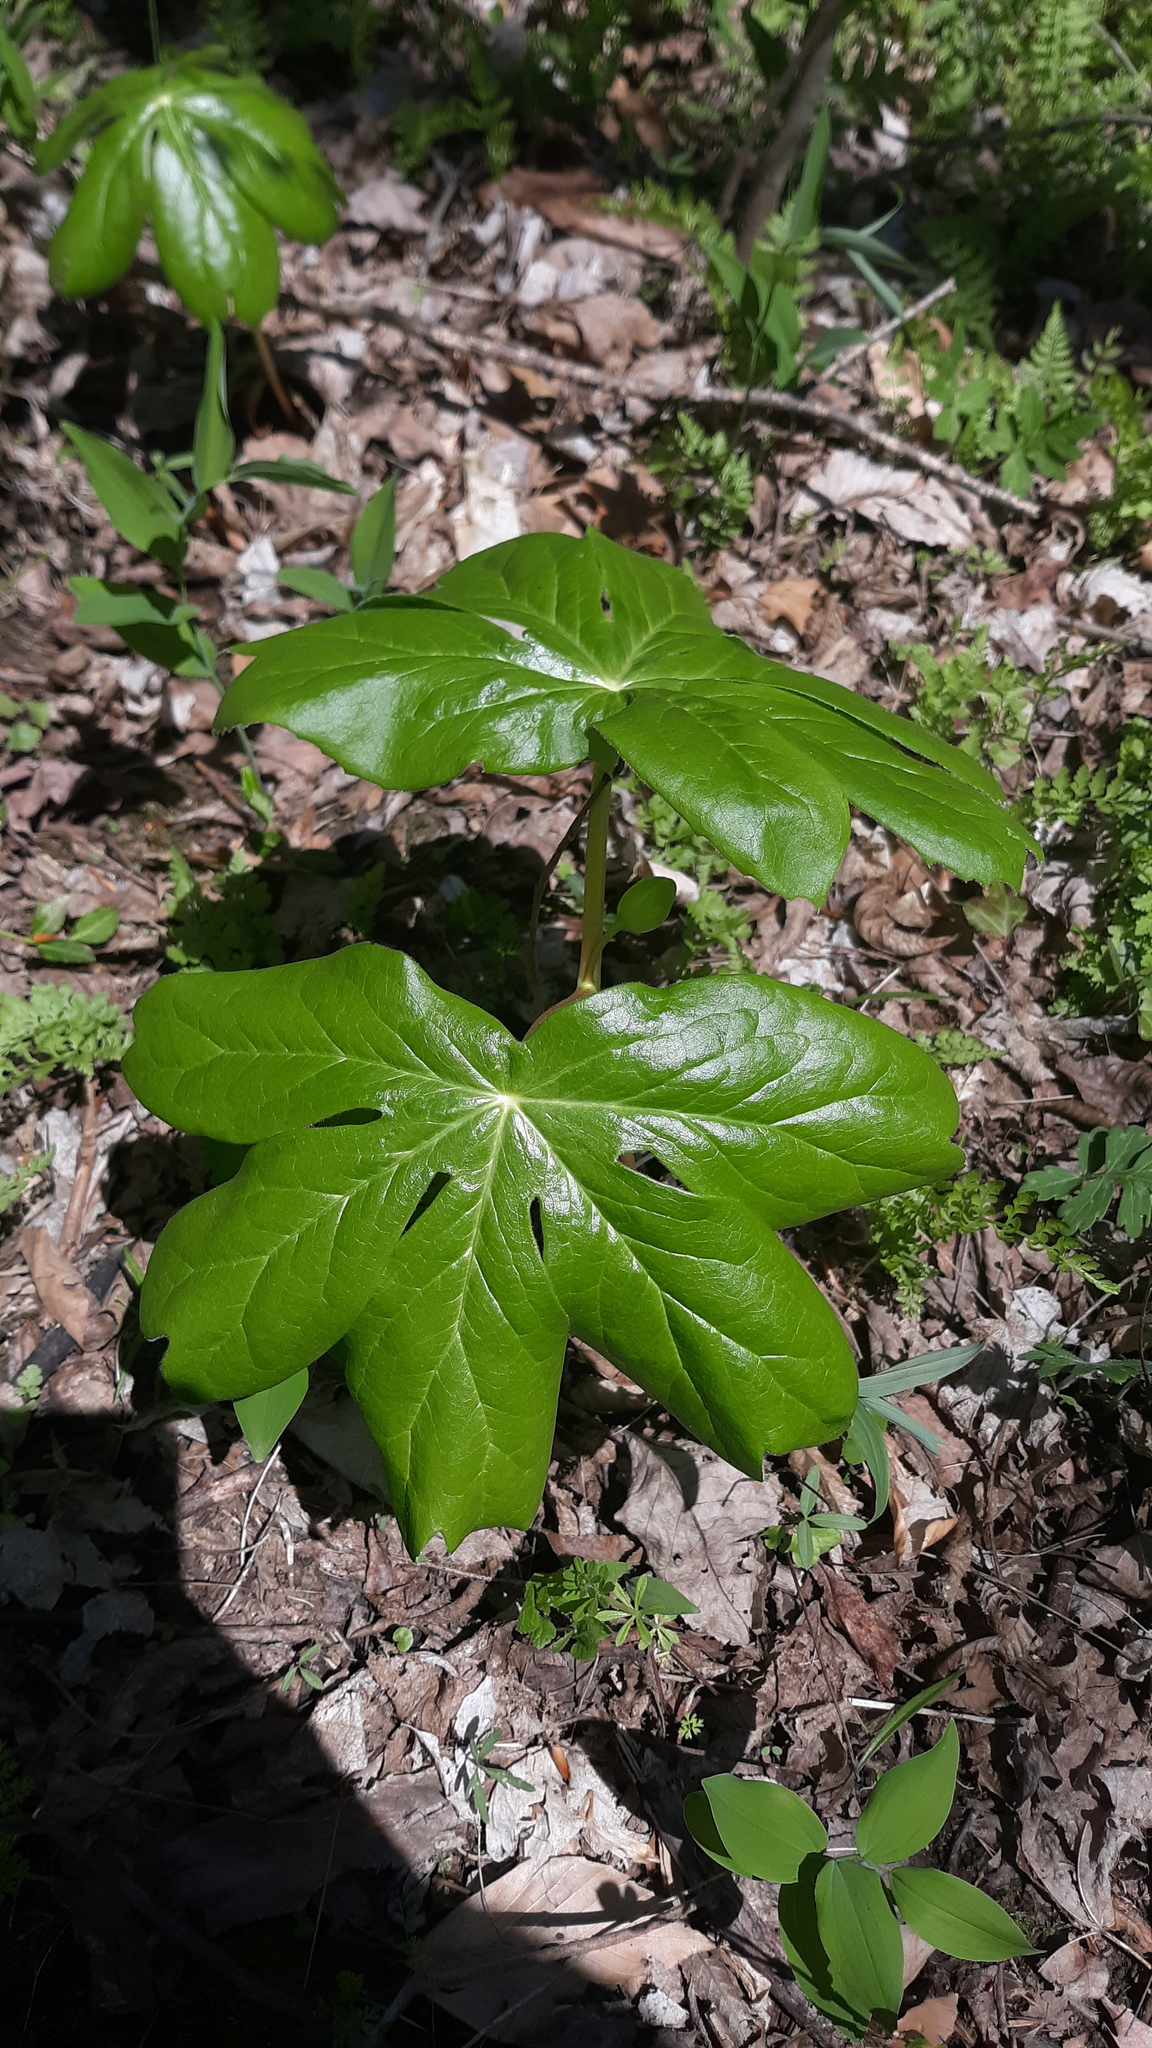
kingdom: Plantae
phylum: Tracheophyta
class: Magnoliopsida
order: Ranunculales
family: Berberidaceae
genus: Podophyllum
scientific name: Podophyllum peltatum
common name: Wild mandrake
